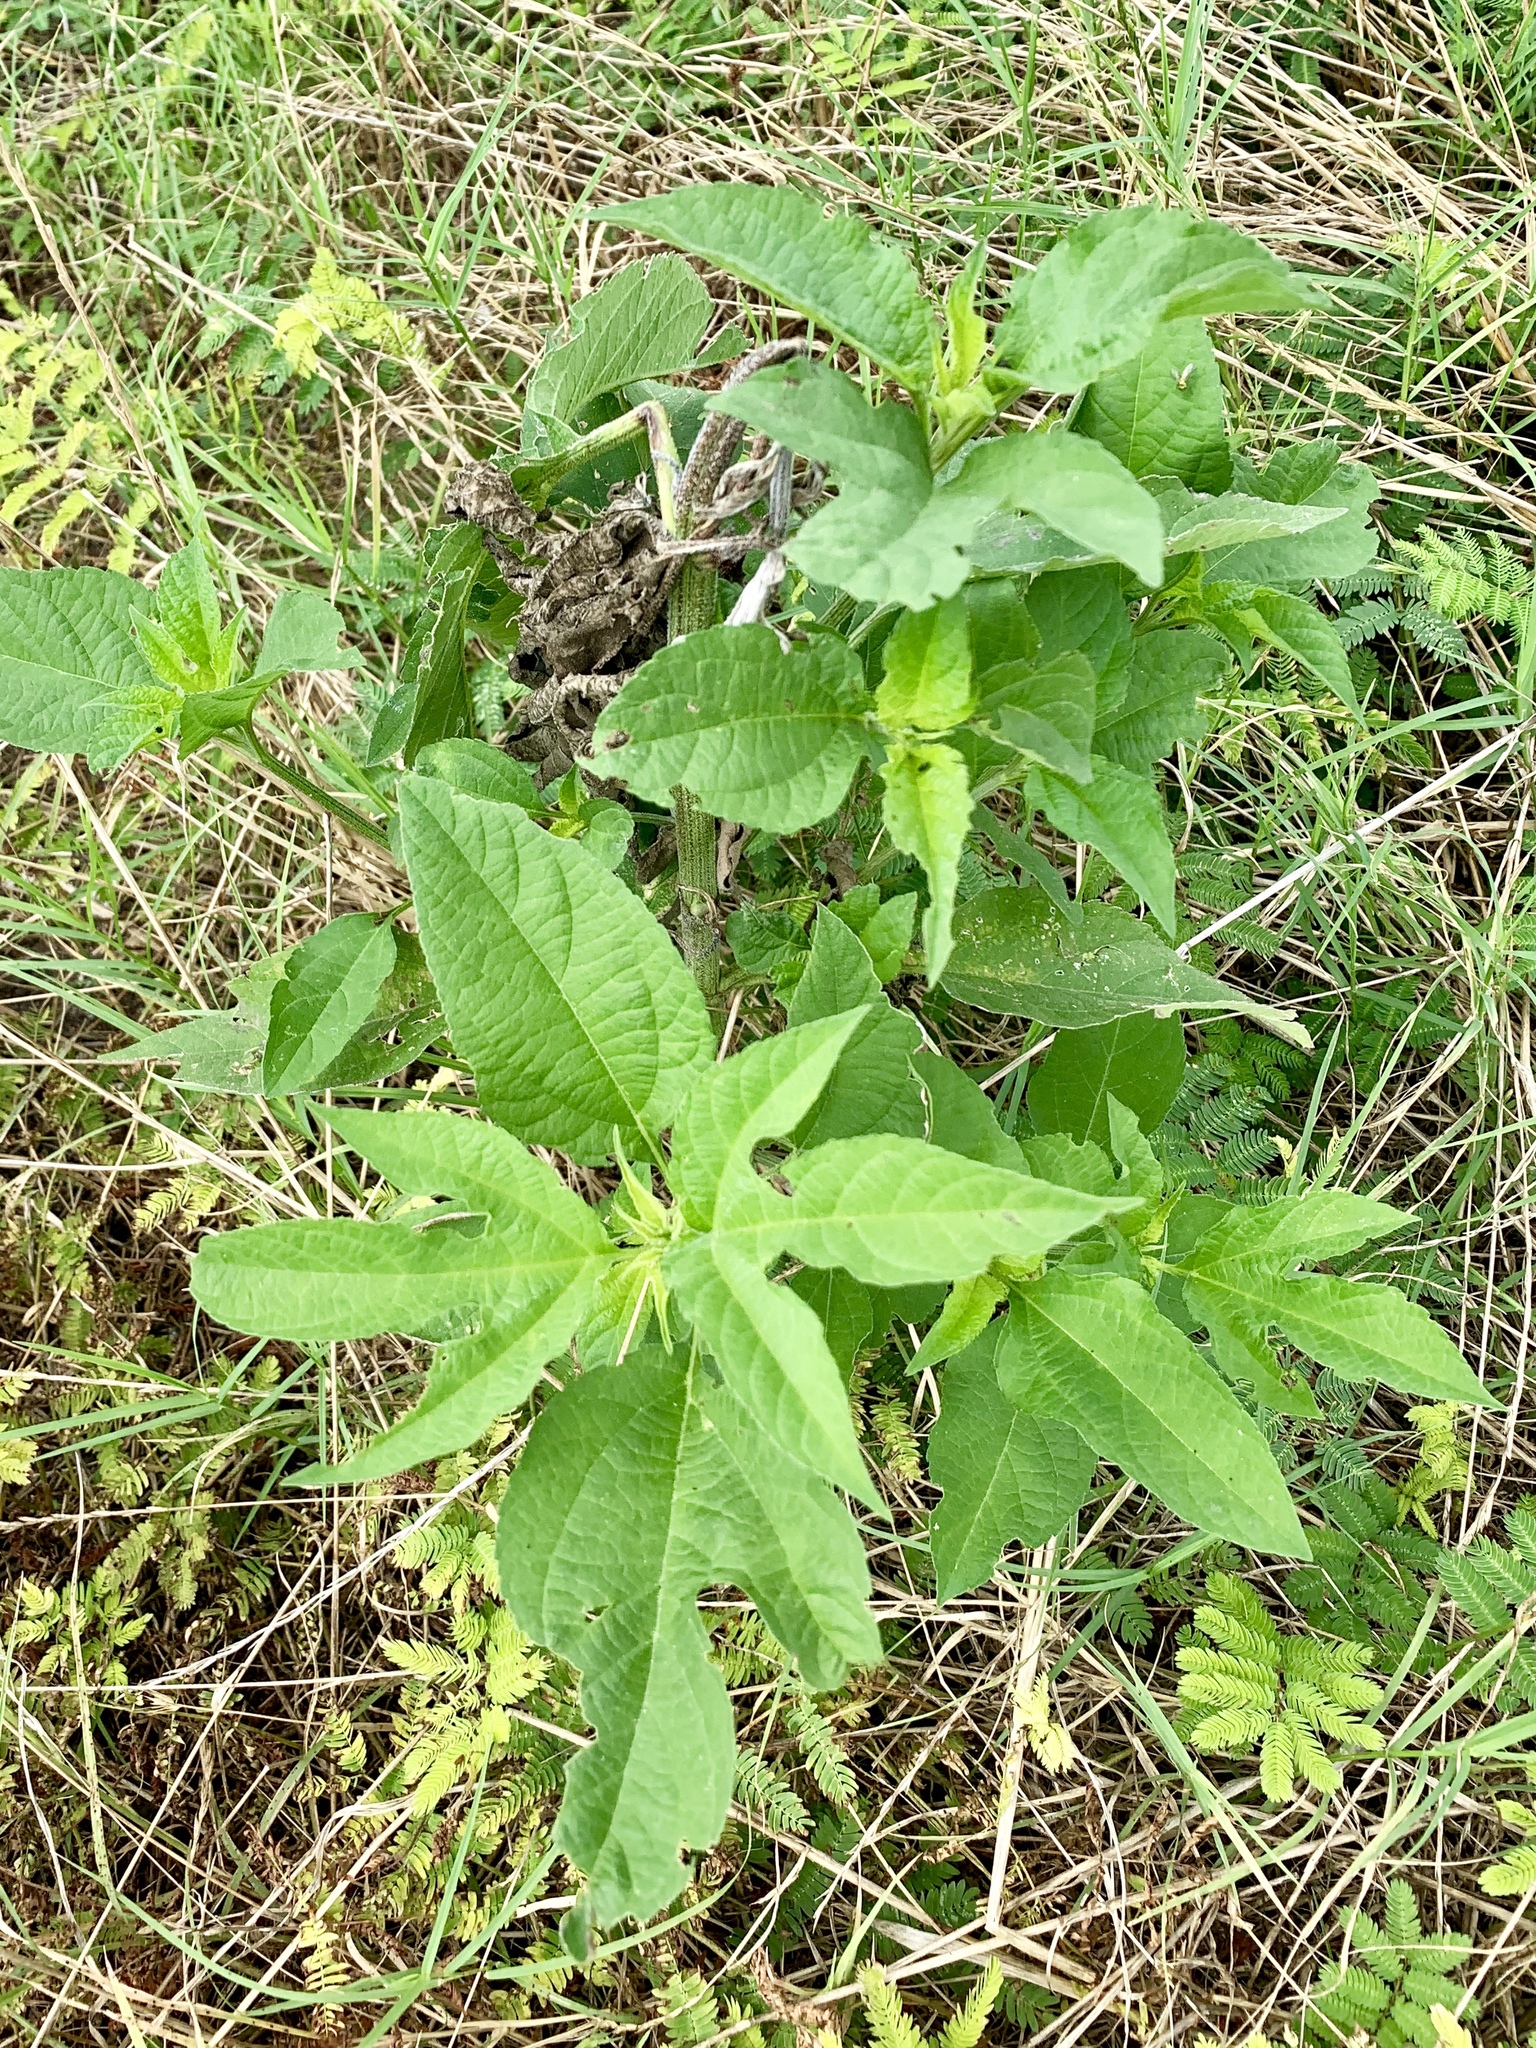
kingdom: Plantae
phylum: Tracheophyta
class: Magnoliopsida
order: Asterales
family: Asteraceae
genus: Ambrosia
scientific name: Ambrosia trifida
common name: Giant ragweed
